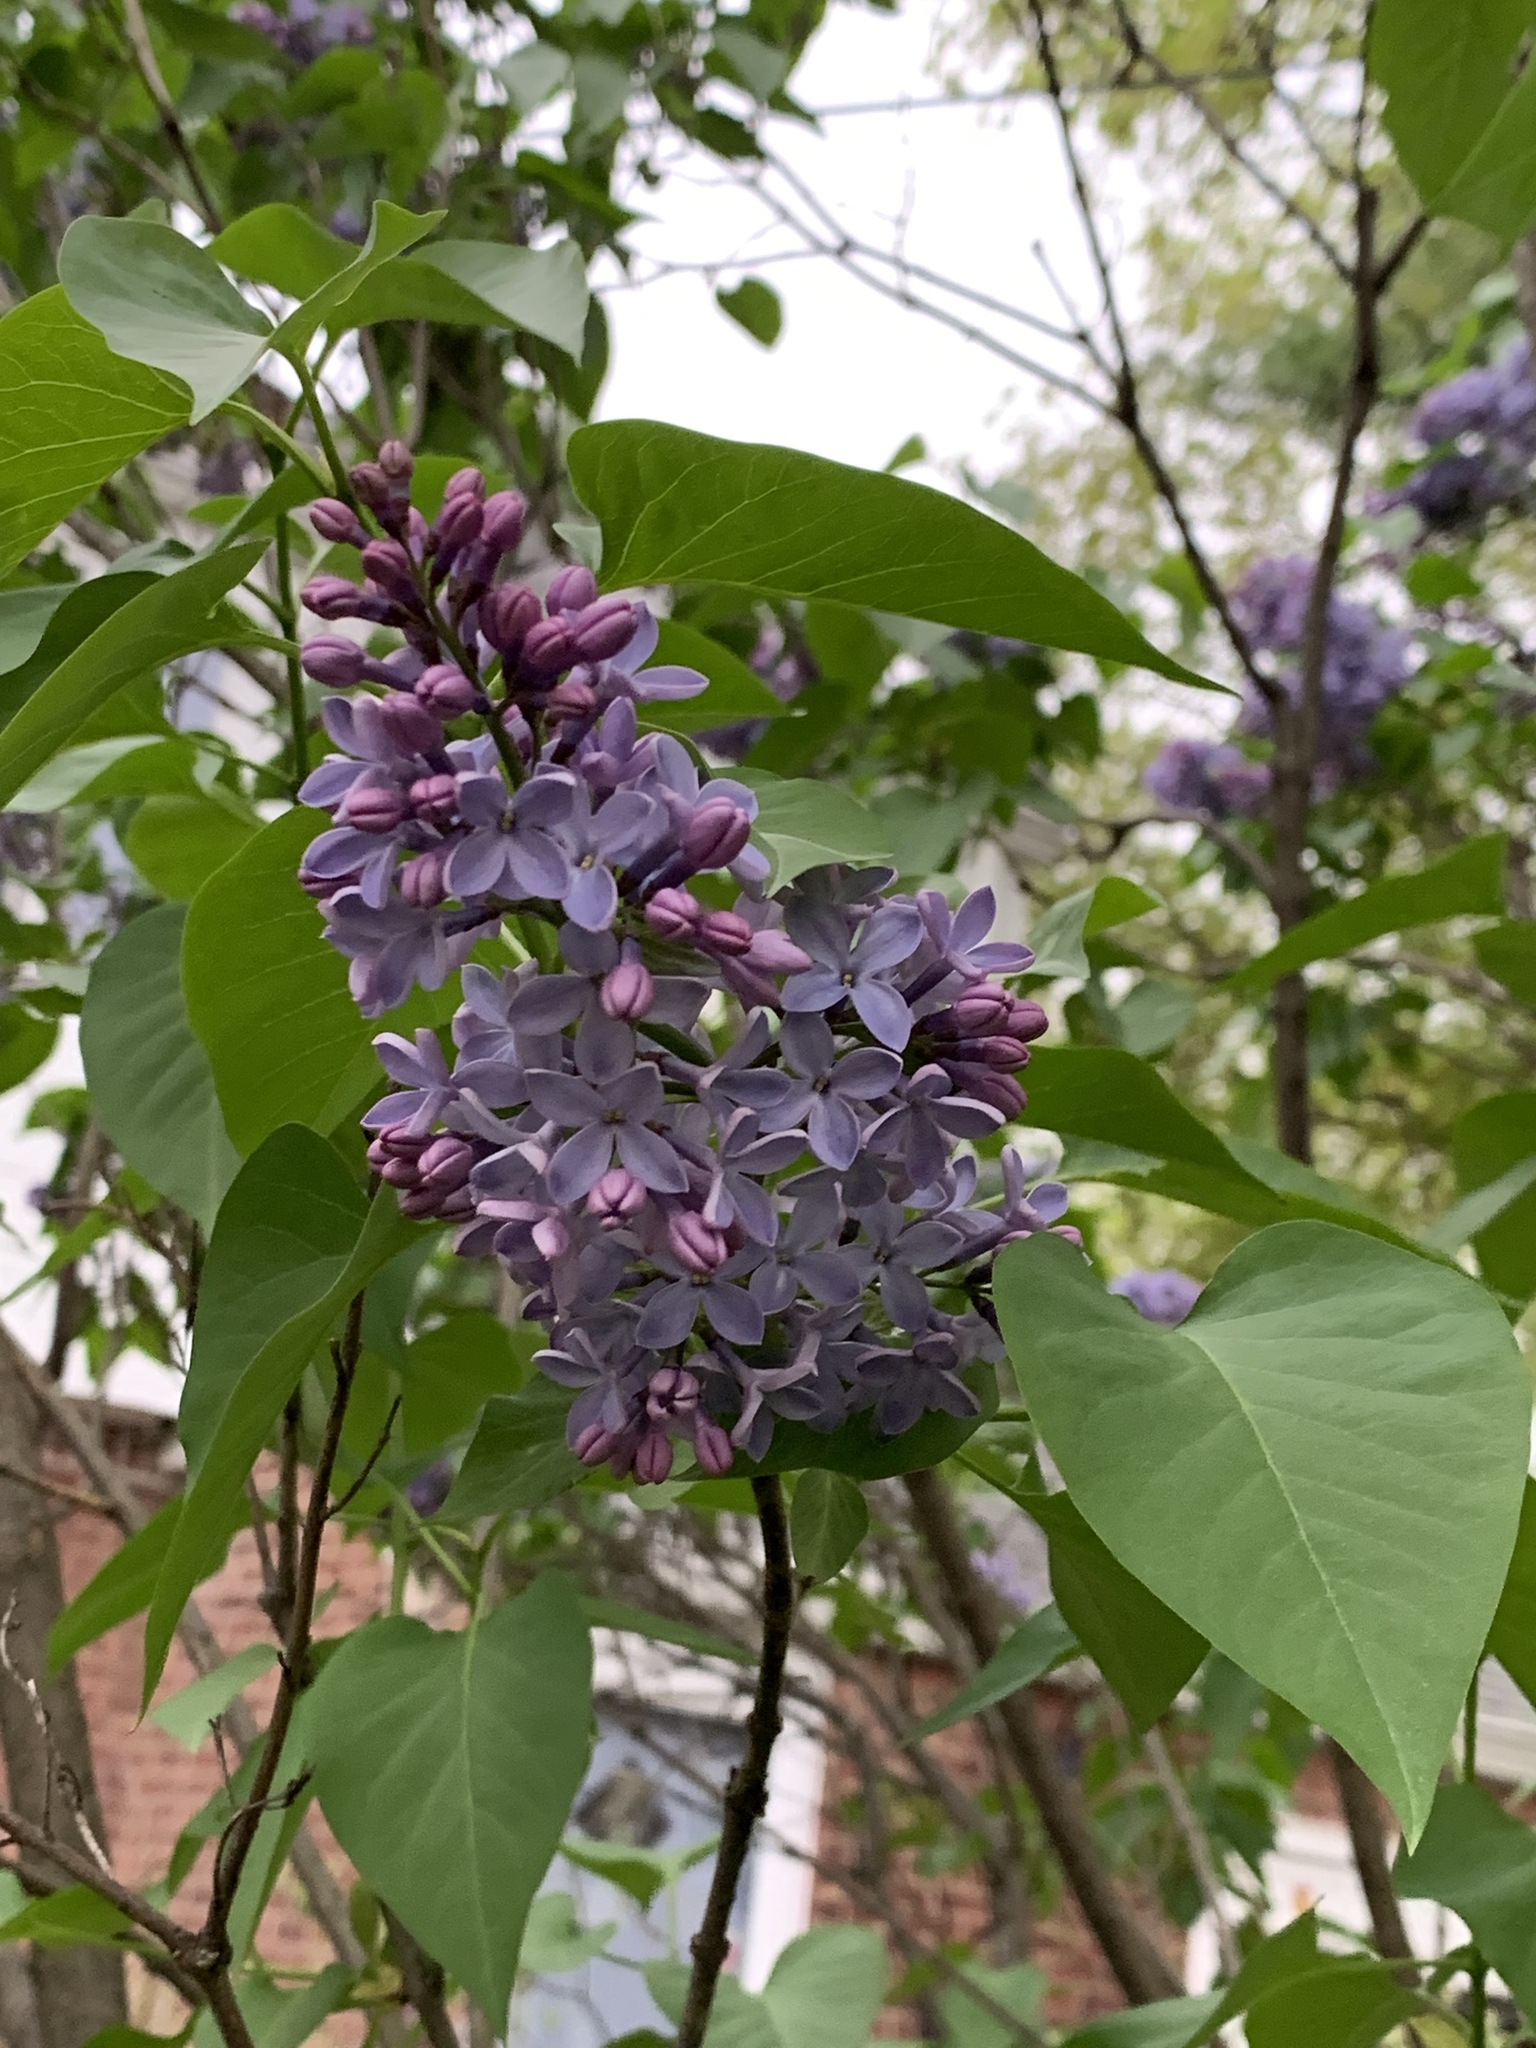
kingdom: Plantae
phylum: Tracheophyta
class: Magnoliopsida
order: Lamiales
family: Oleaceae
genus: Syringa
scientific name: Syringa vulgaris
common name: Common lilac
